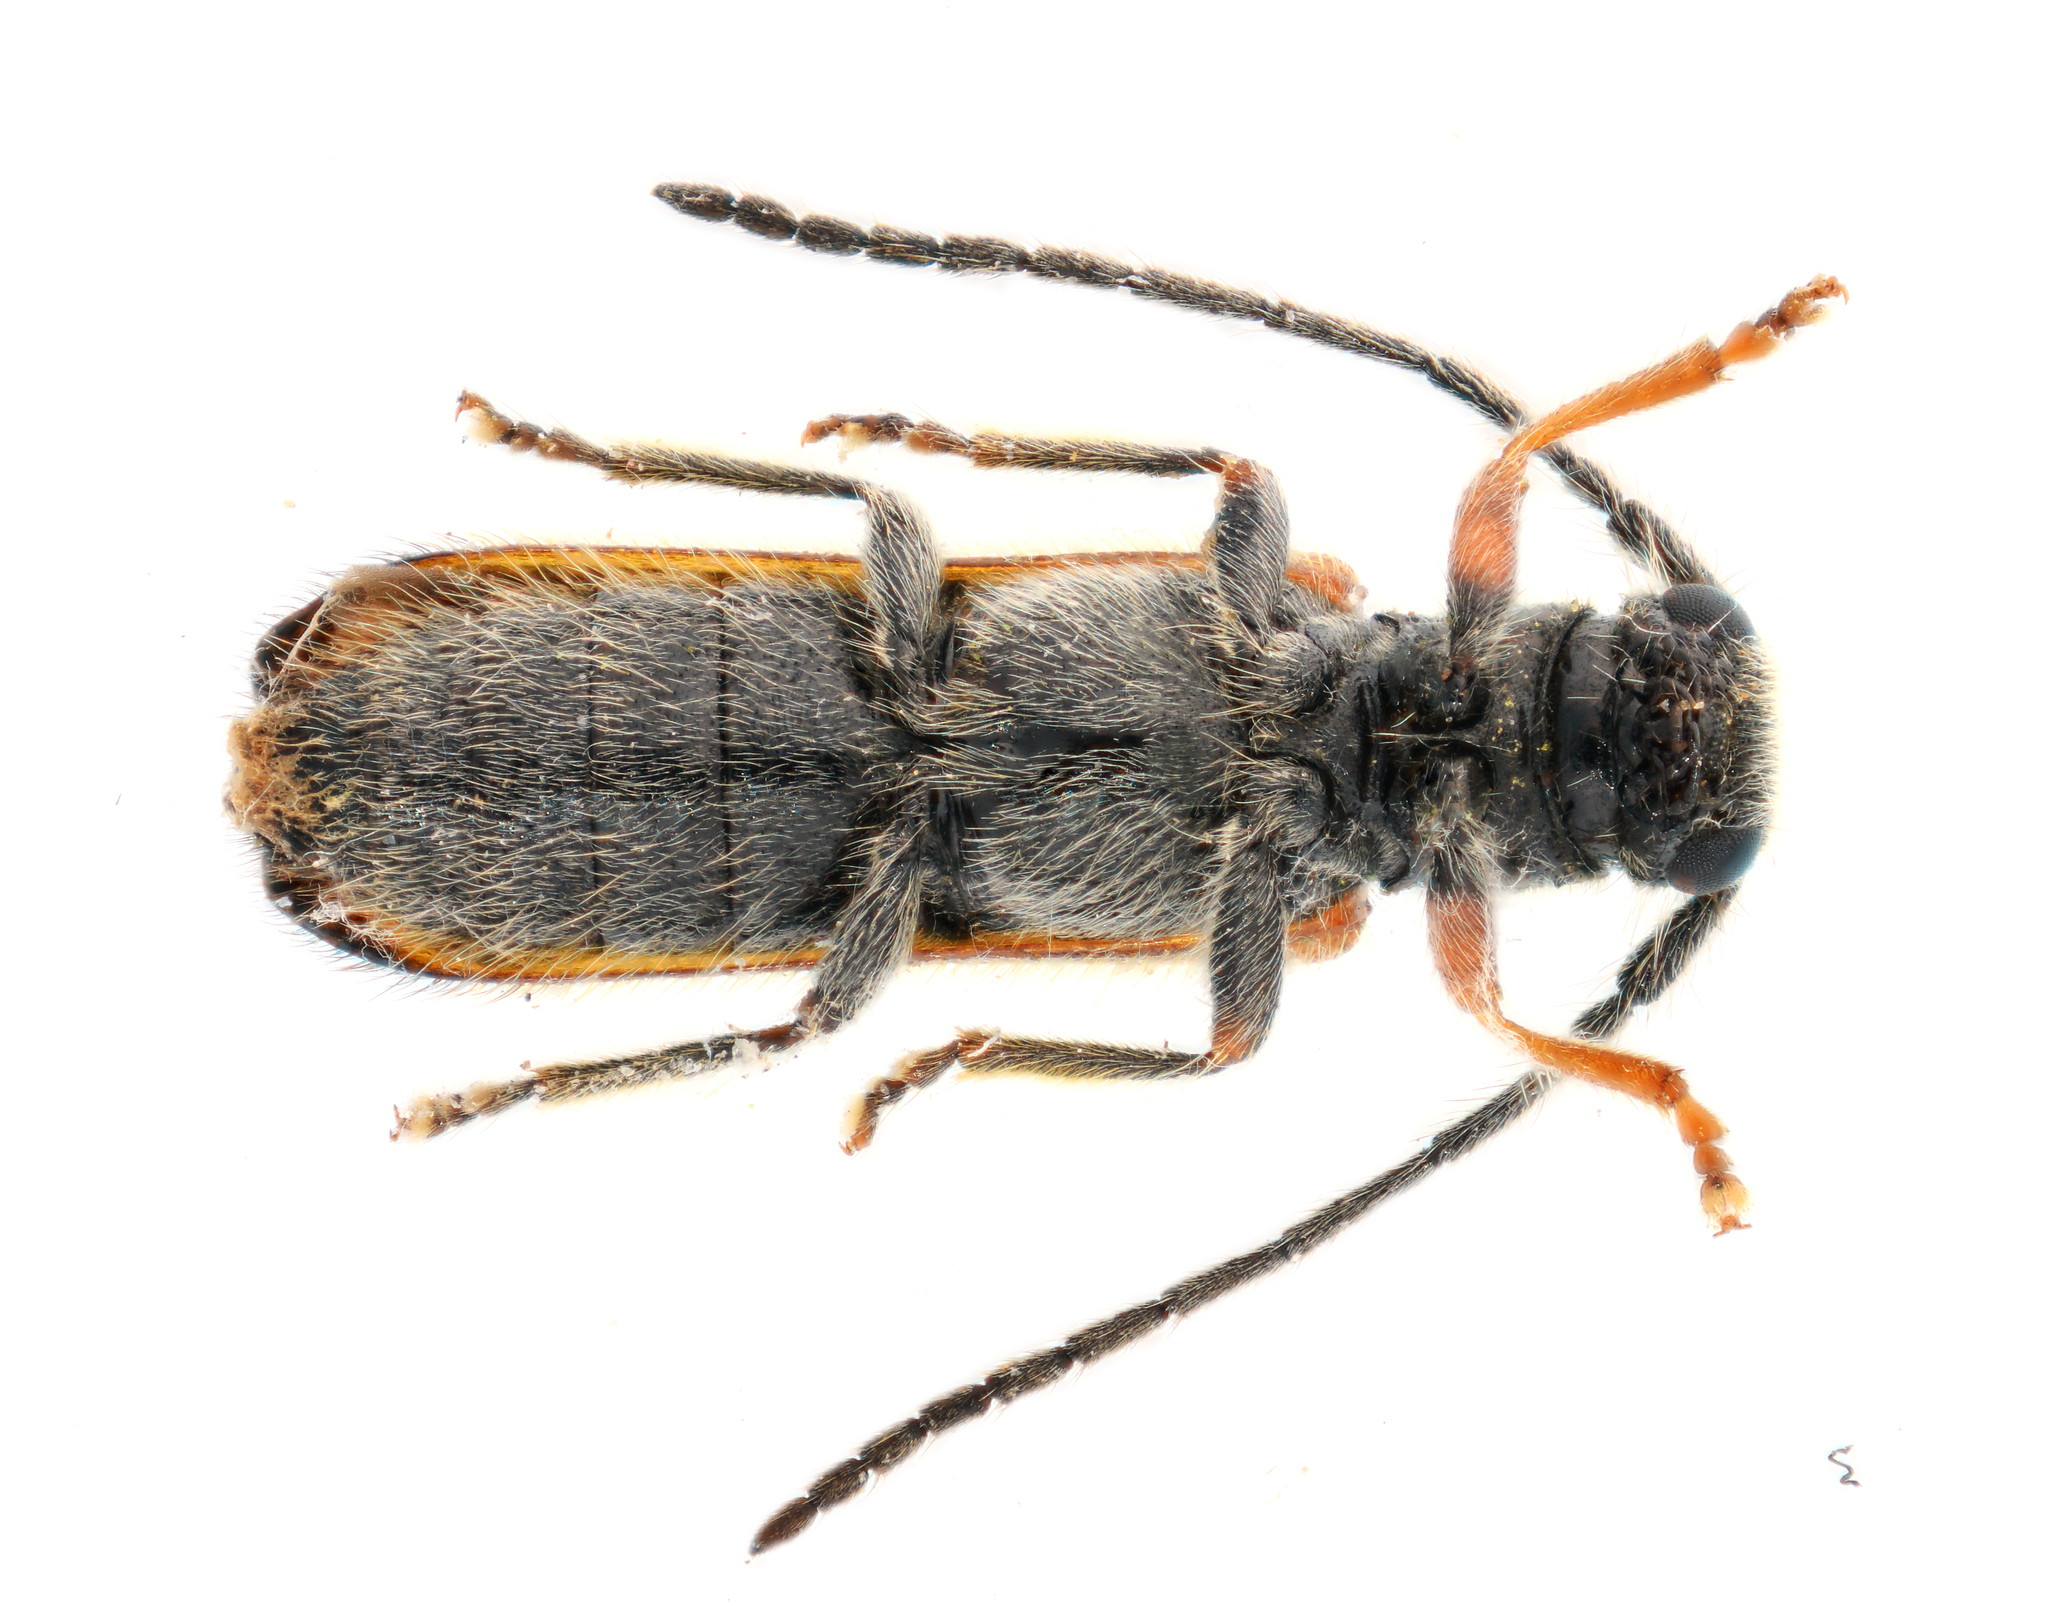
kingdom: Animalia
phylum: Arthropoda
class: Insecta
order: Coleoptera
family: Cerambycidae
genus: Tetrops
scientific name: Tetrops praeustus
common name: Plum beetle
